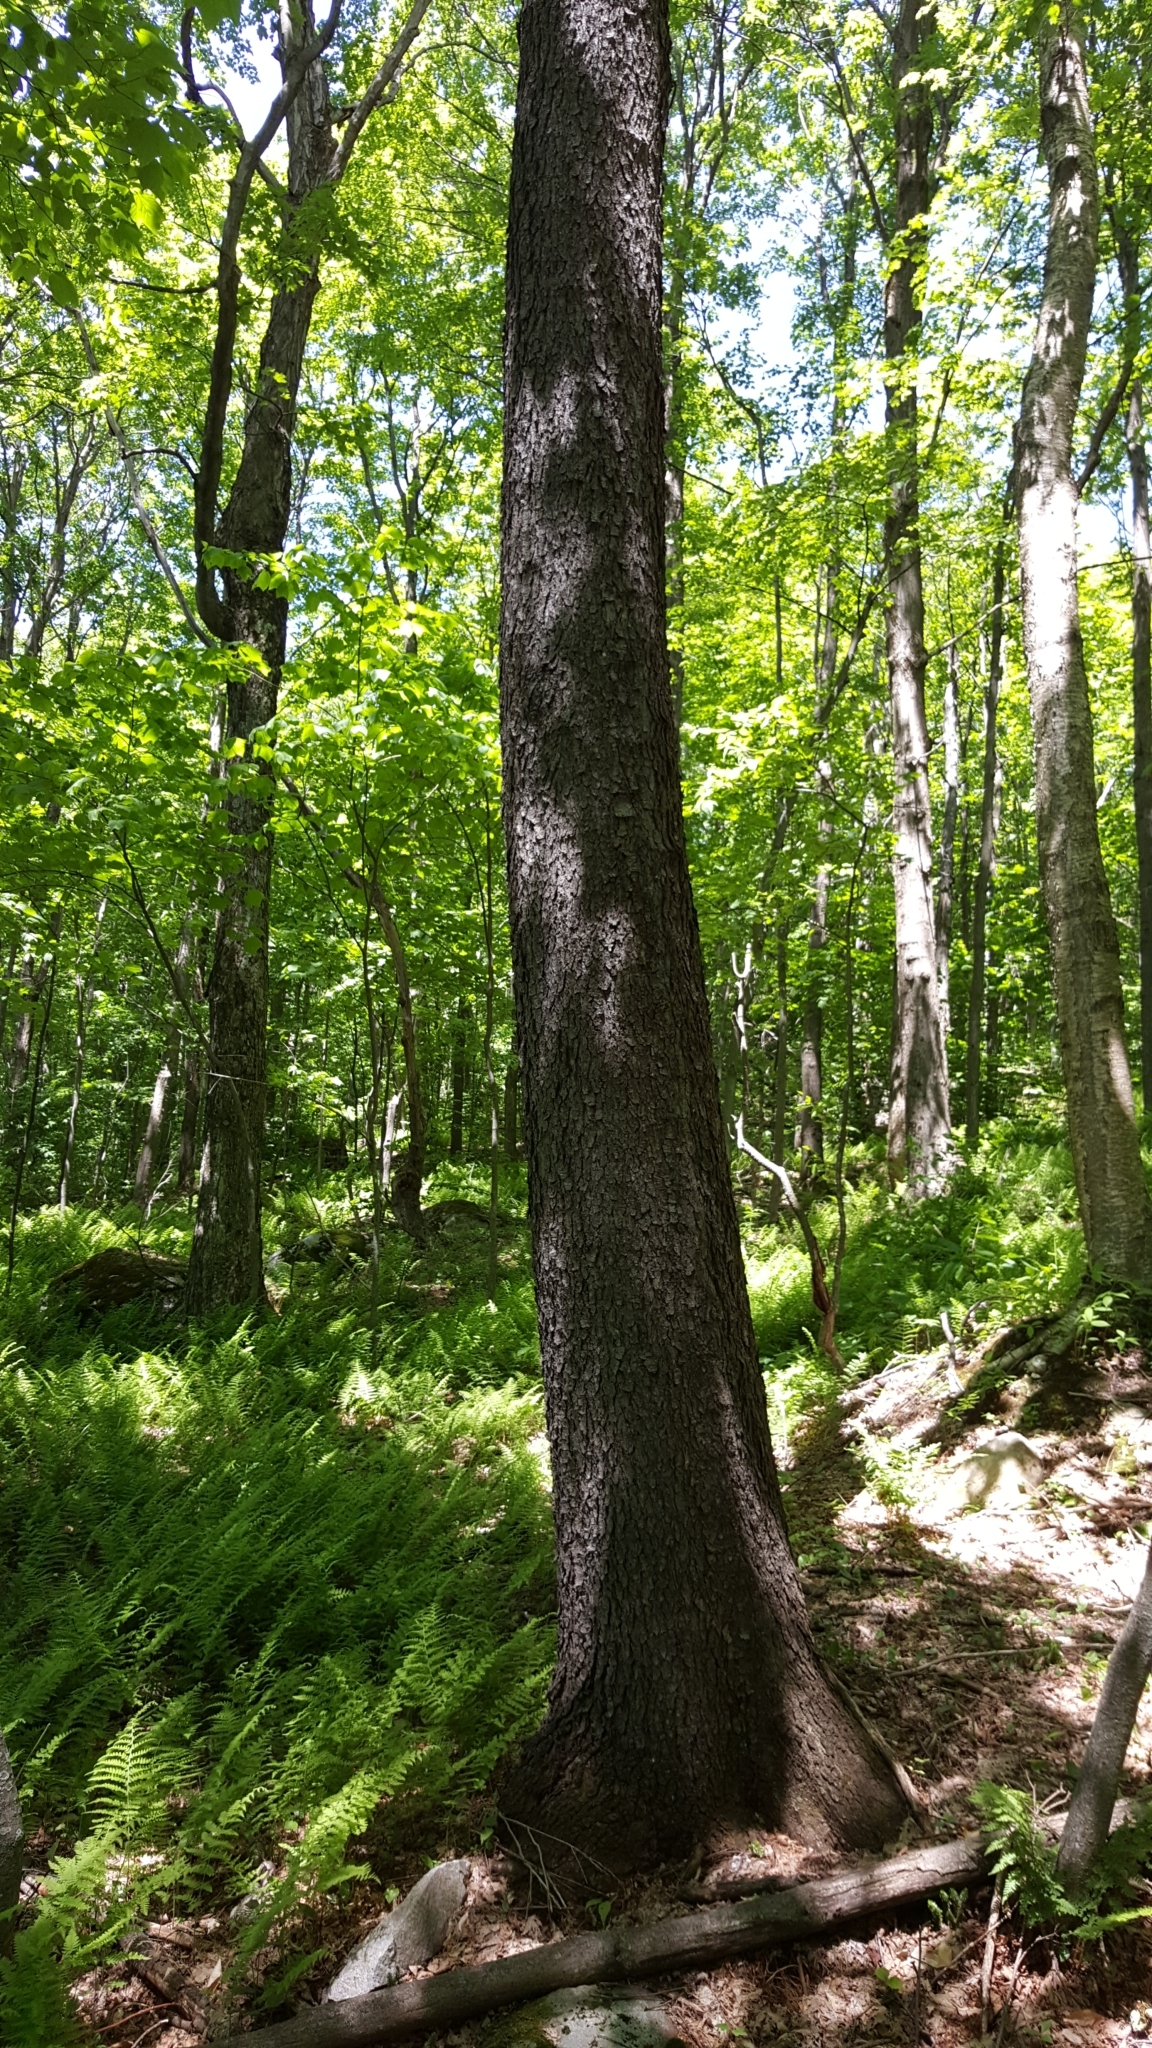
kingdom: Plantae
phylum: Tracheophyta
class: Magnoliopsida
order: Rosales
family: Rosaceae
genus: Prunus
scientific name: Prunus serotina
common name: Black cherry
